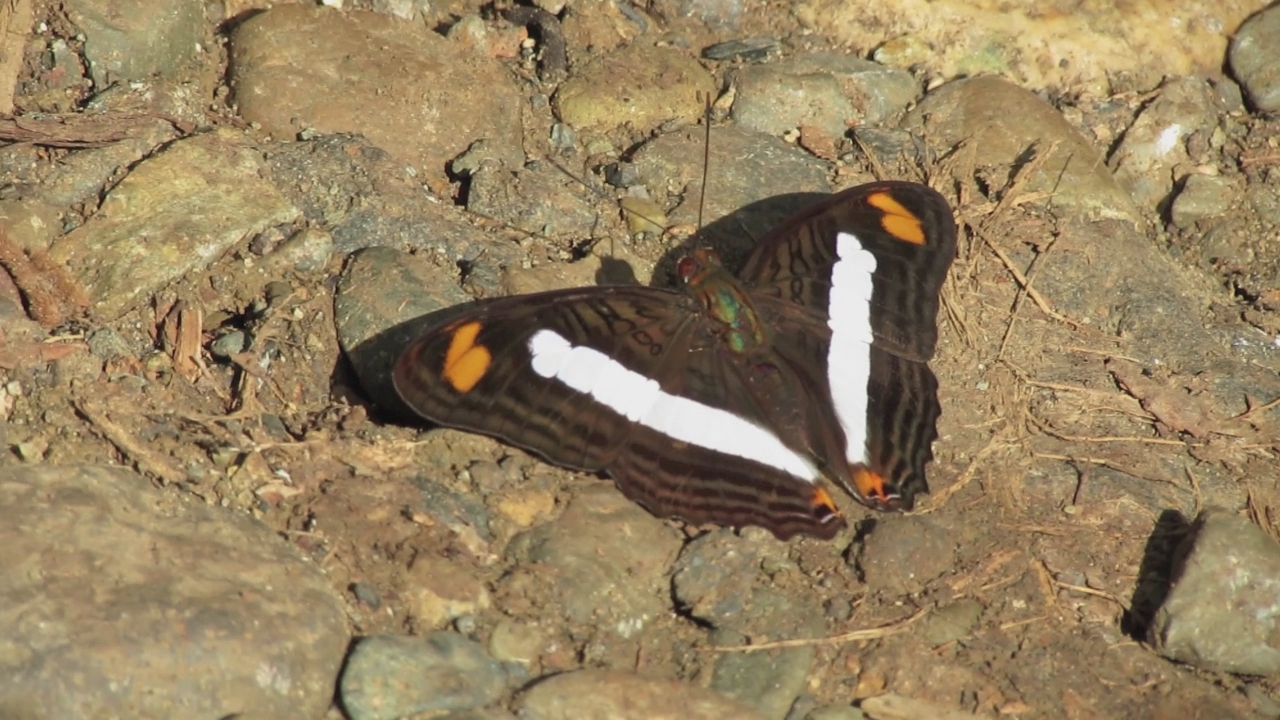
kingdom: Animalia
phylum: Arthropoda
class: Insecta
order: Lepidoptera
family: Nymphalidae
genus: Limenitis
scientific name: Limenitis Adelpha basiloides
